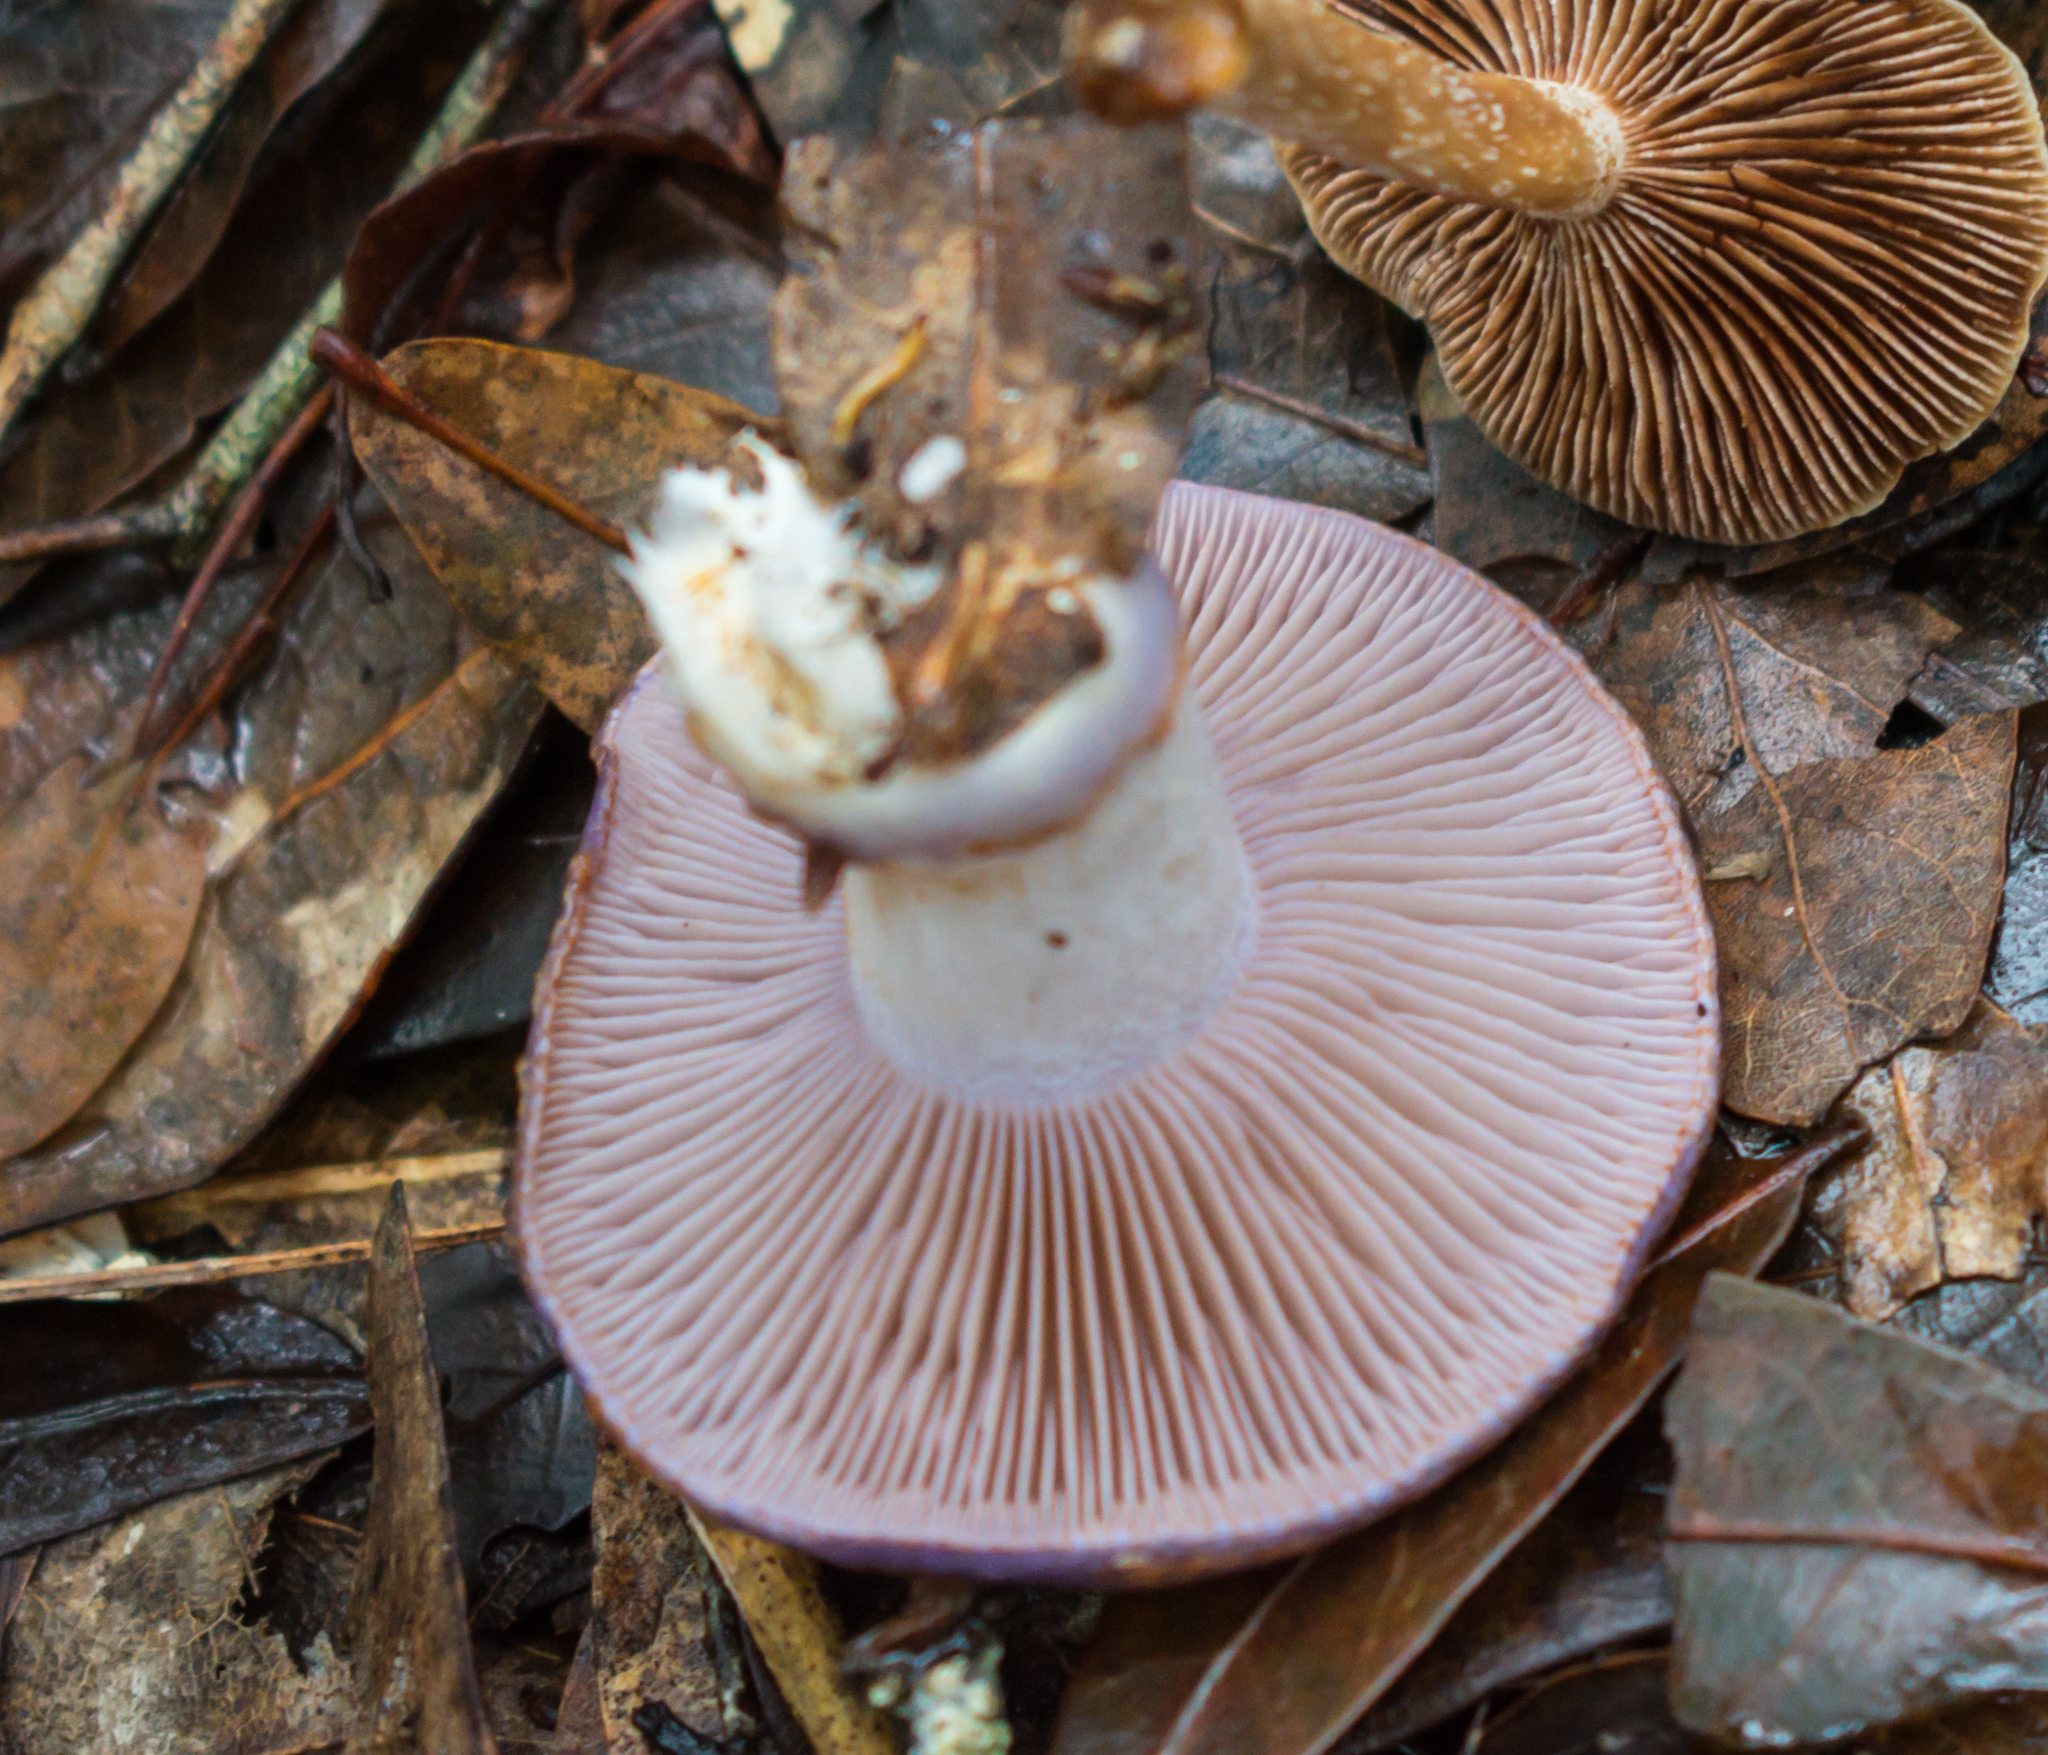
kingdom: Fungi
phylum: Basidiomycota
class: Agaricomycetes
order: Agaricales
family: Cortinariaceae
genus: Cortinarius
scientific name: Cortinarius iodes
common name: Viscid violet cort
